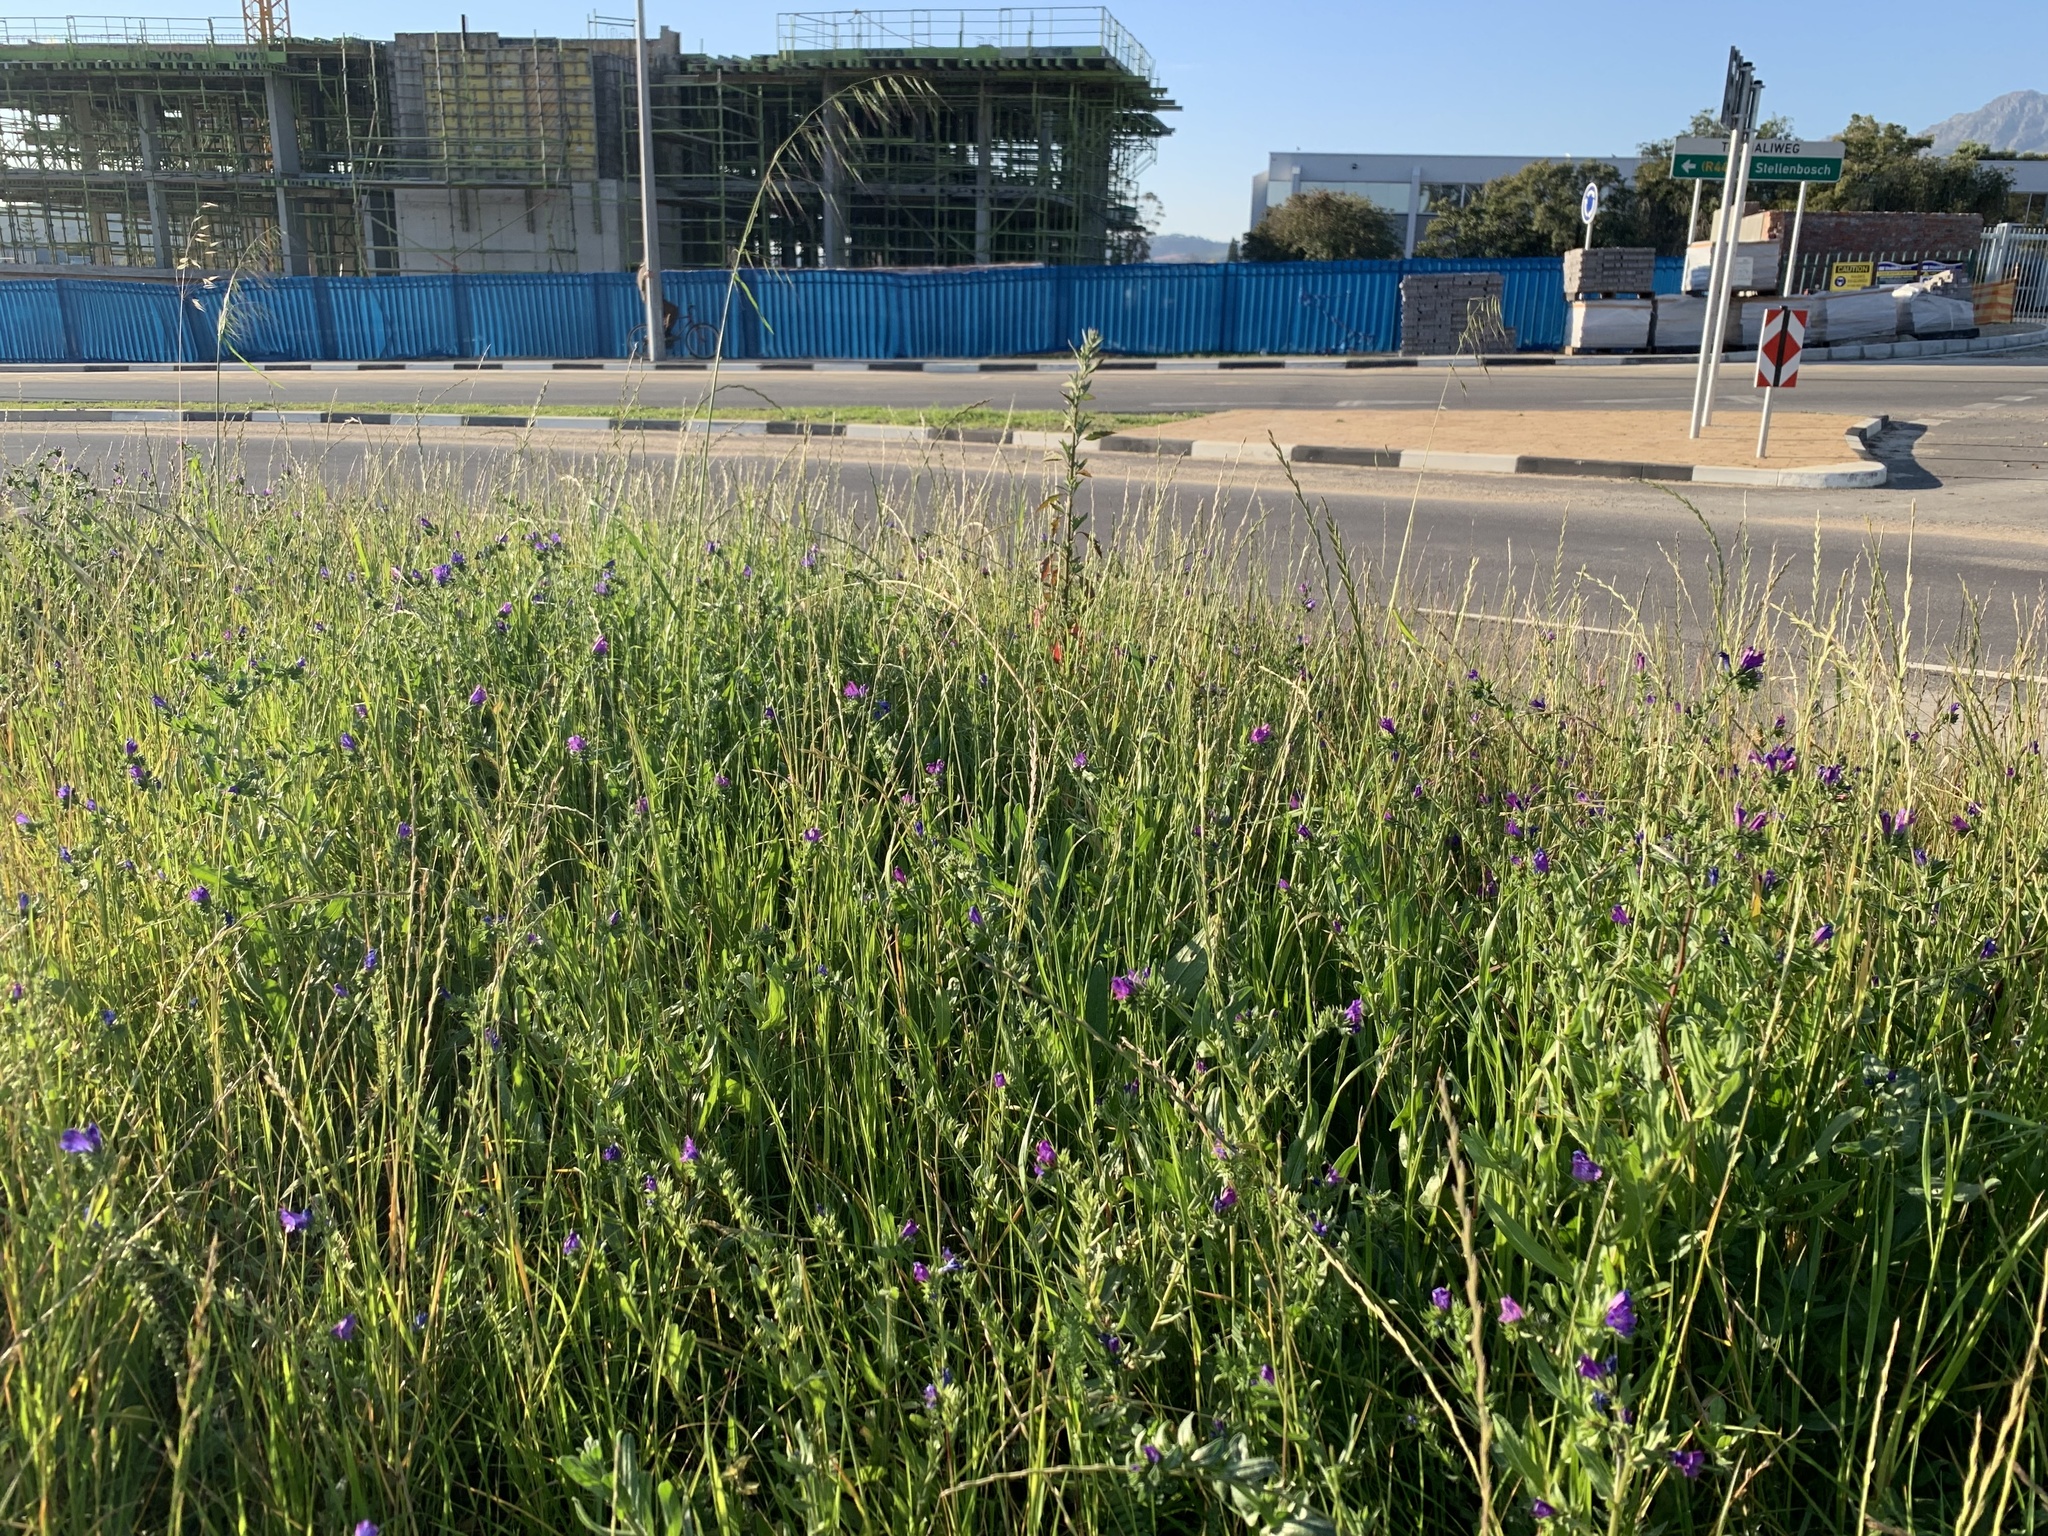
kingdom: Plantae
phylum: Tracheophyta
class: Magnoliopsida
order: Boraginales
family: Boraginaceae
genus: Echium
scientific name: Echium plantagineum
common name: Purple viper's-bugloss
